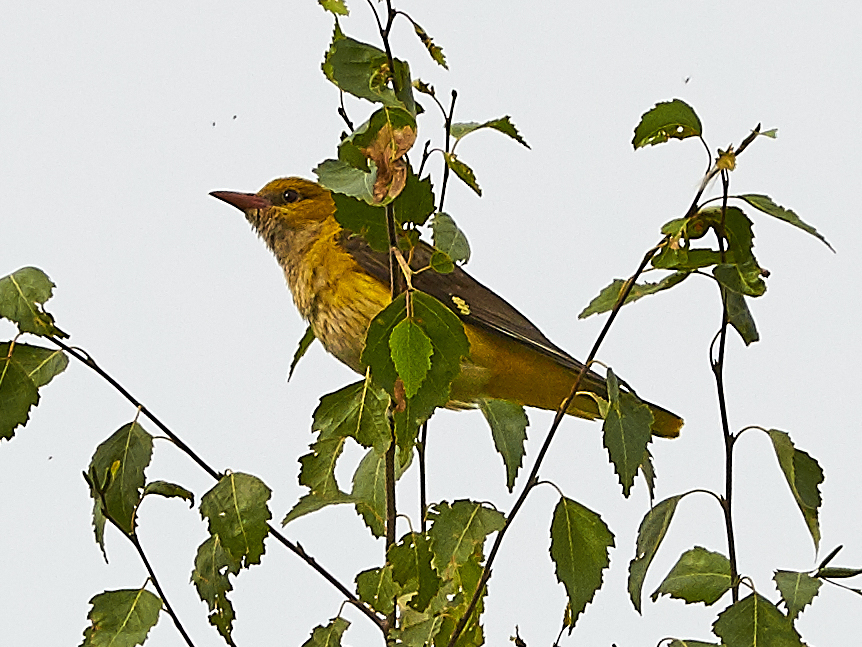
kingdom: Animalia
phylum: Chordata
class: Aves
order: Passeriformes
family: Oriolidae
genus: Oriolus
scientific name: Oriolus oriolus
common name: Eurasian golden oriole
